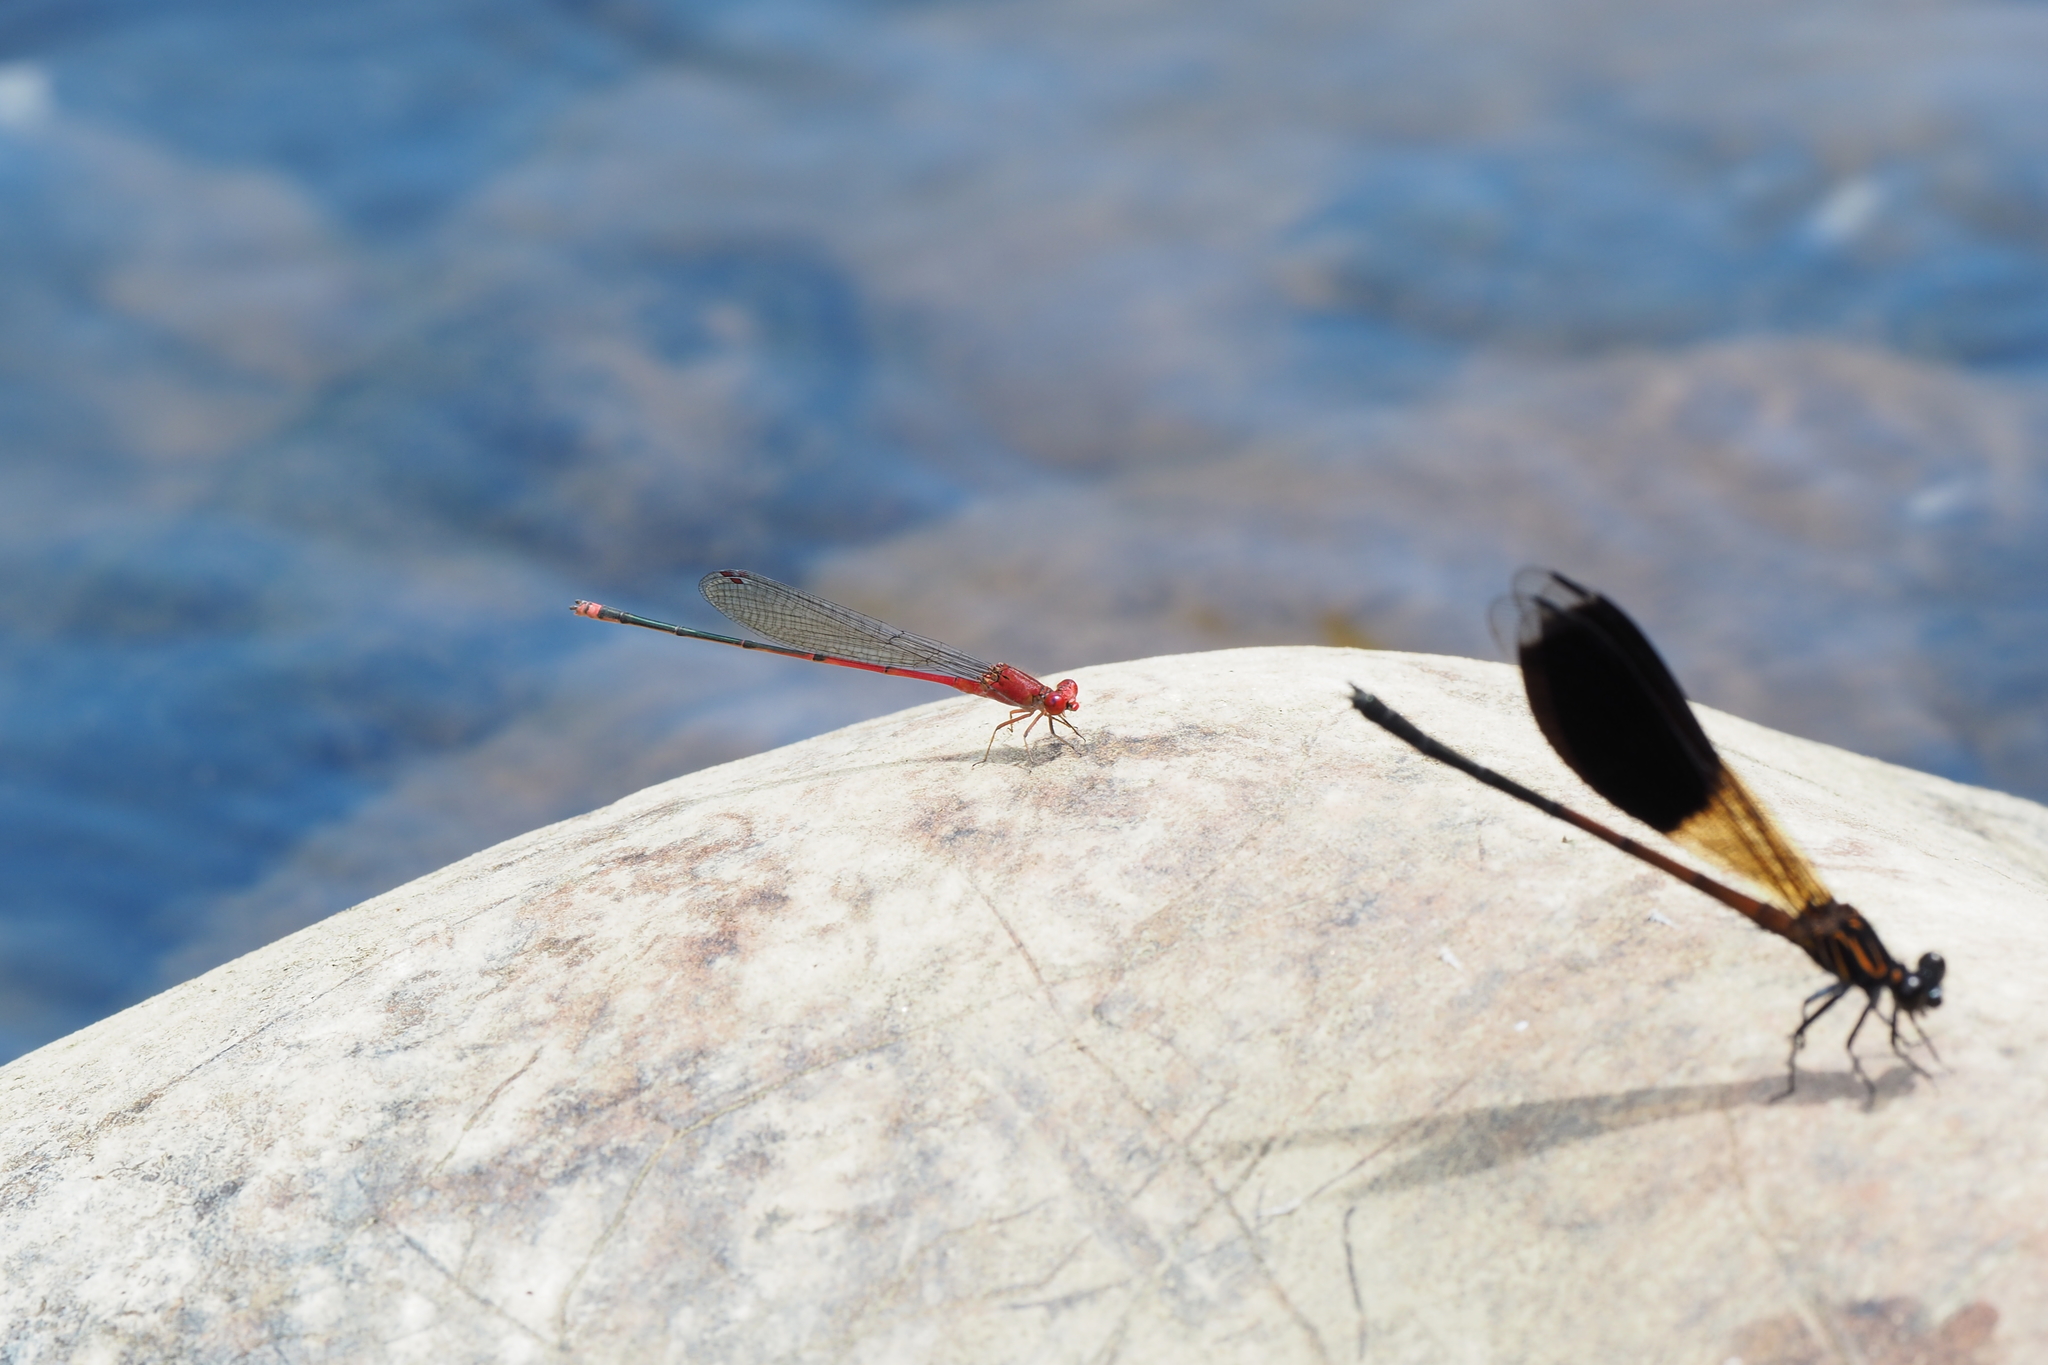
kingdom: Animalia
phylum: Arthropoda
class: Insecta
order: Odonata
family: Coenagrionidae
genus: Pseudagrion
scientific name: Pseudagrion pilidorsum
